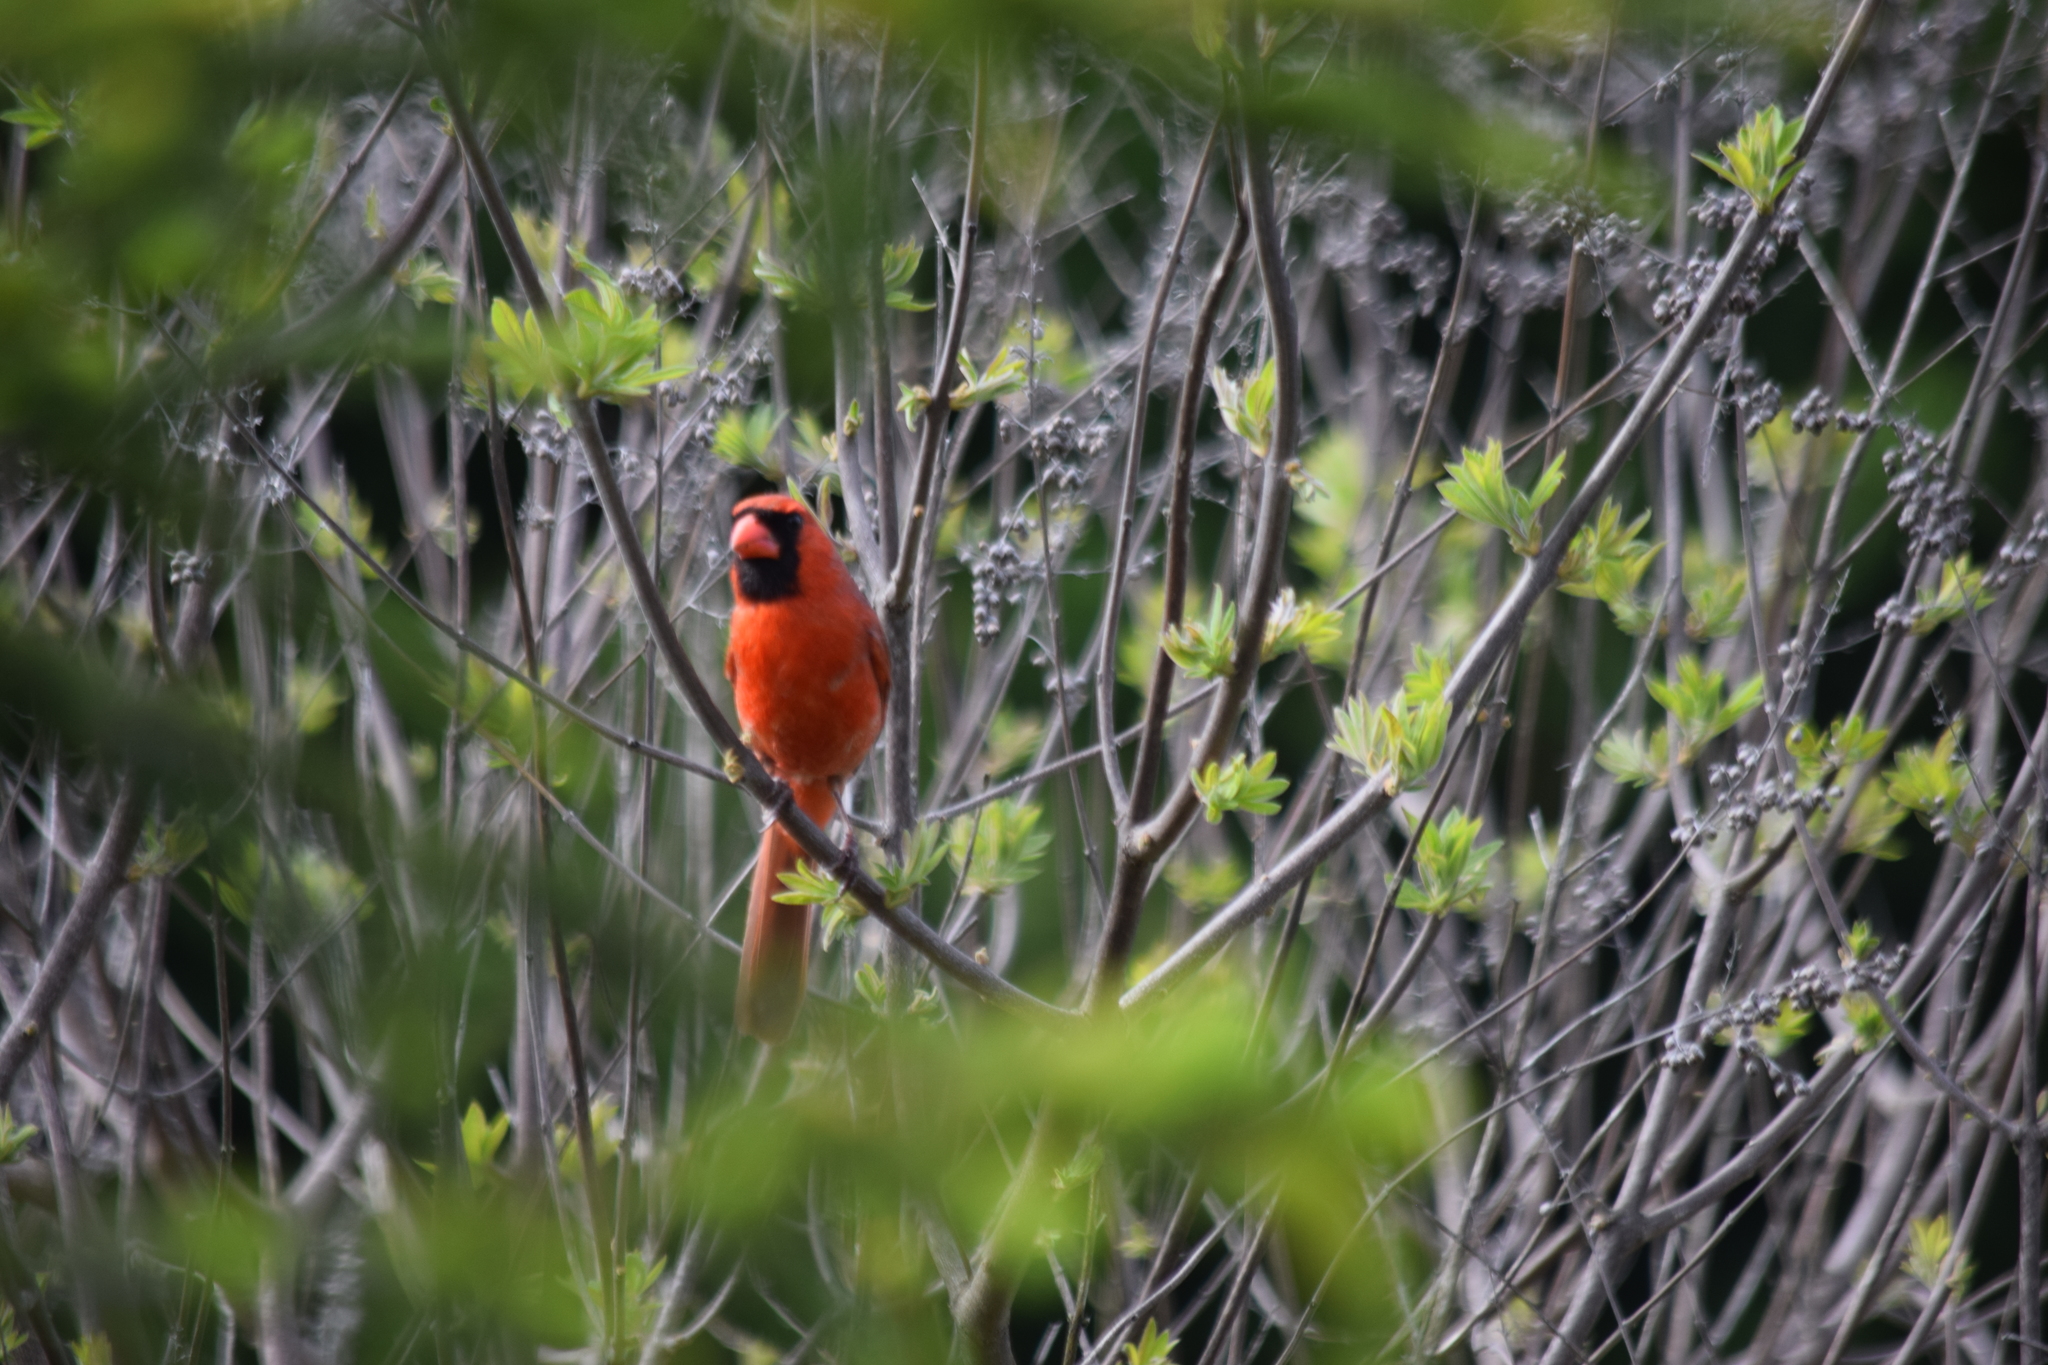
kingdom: Animalia
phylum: Chordata
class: Aves
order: Passeriformes
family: Cardinalidae
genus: Cardinalis
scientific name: Cardinalis cardinalis
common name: Northern cardinal
